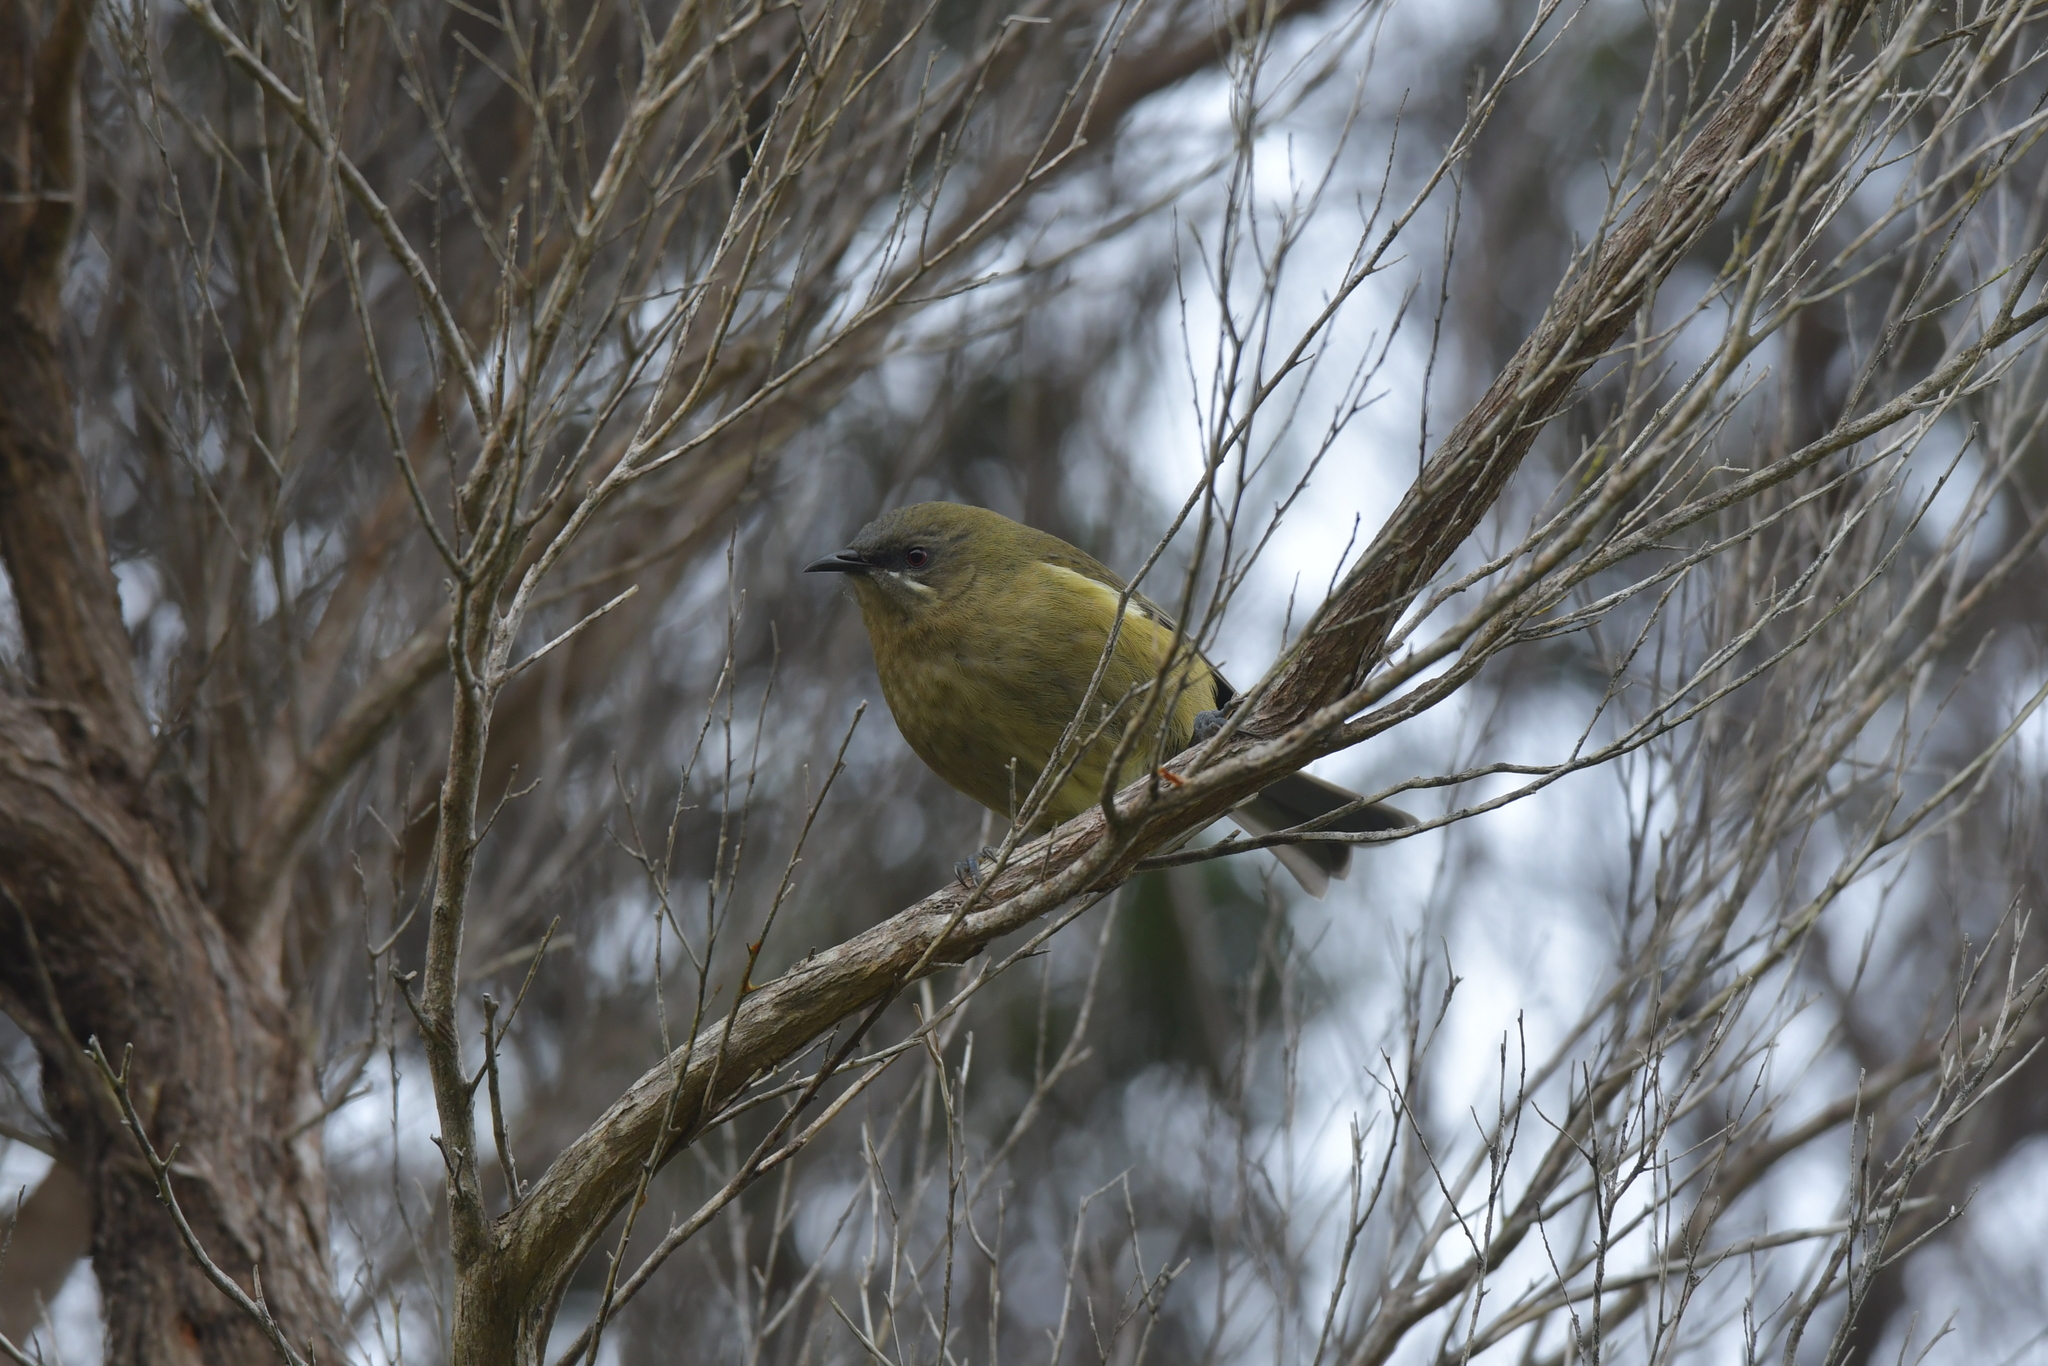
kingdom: Animalia
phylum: Chordata
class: Aves
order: Passeriformes
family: Meliphagidae
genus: Anthornis
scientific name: Anthornis melanura
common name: New zealand bellbird
